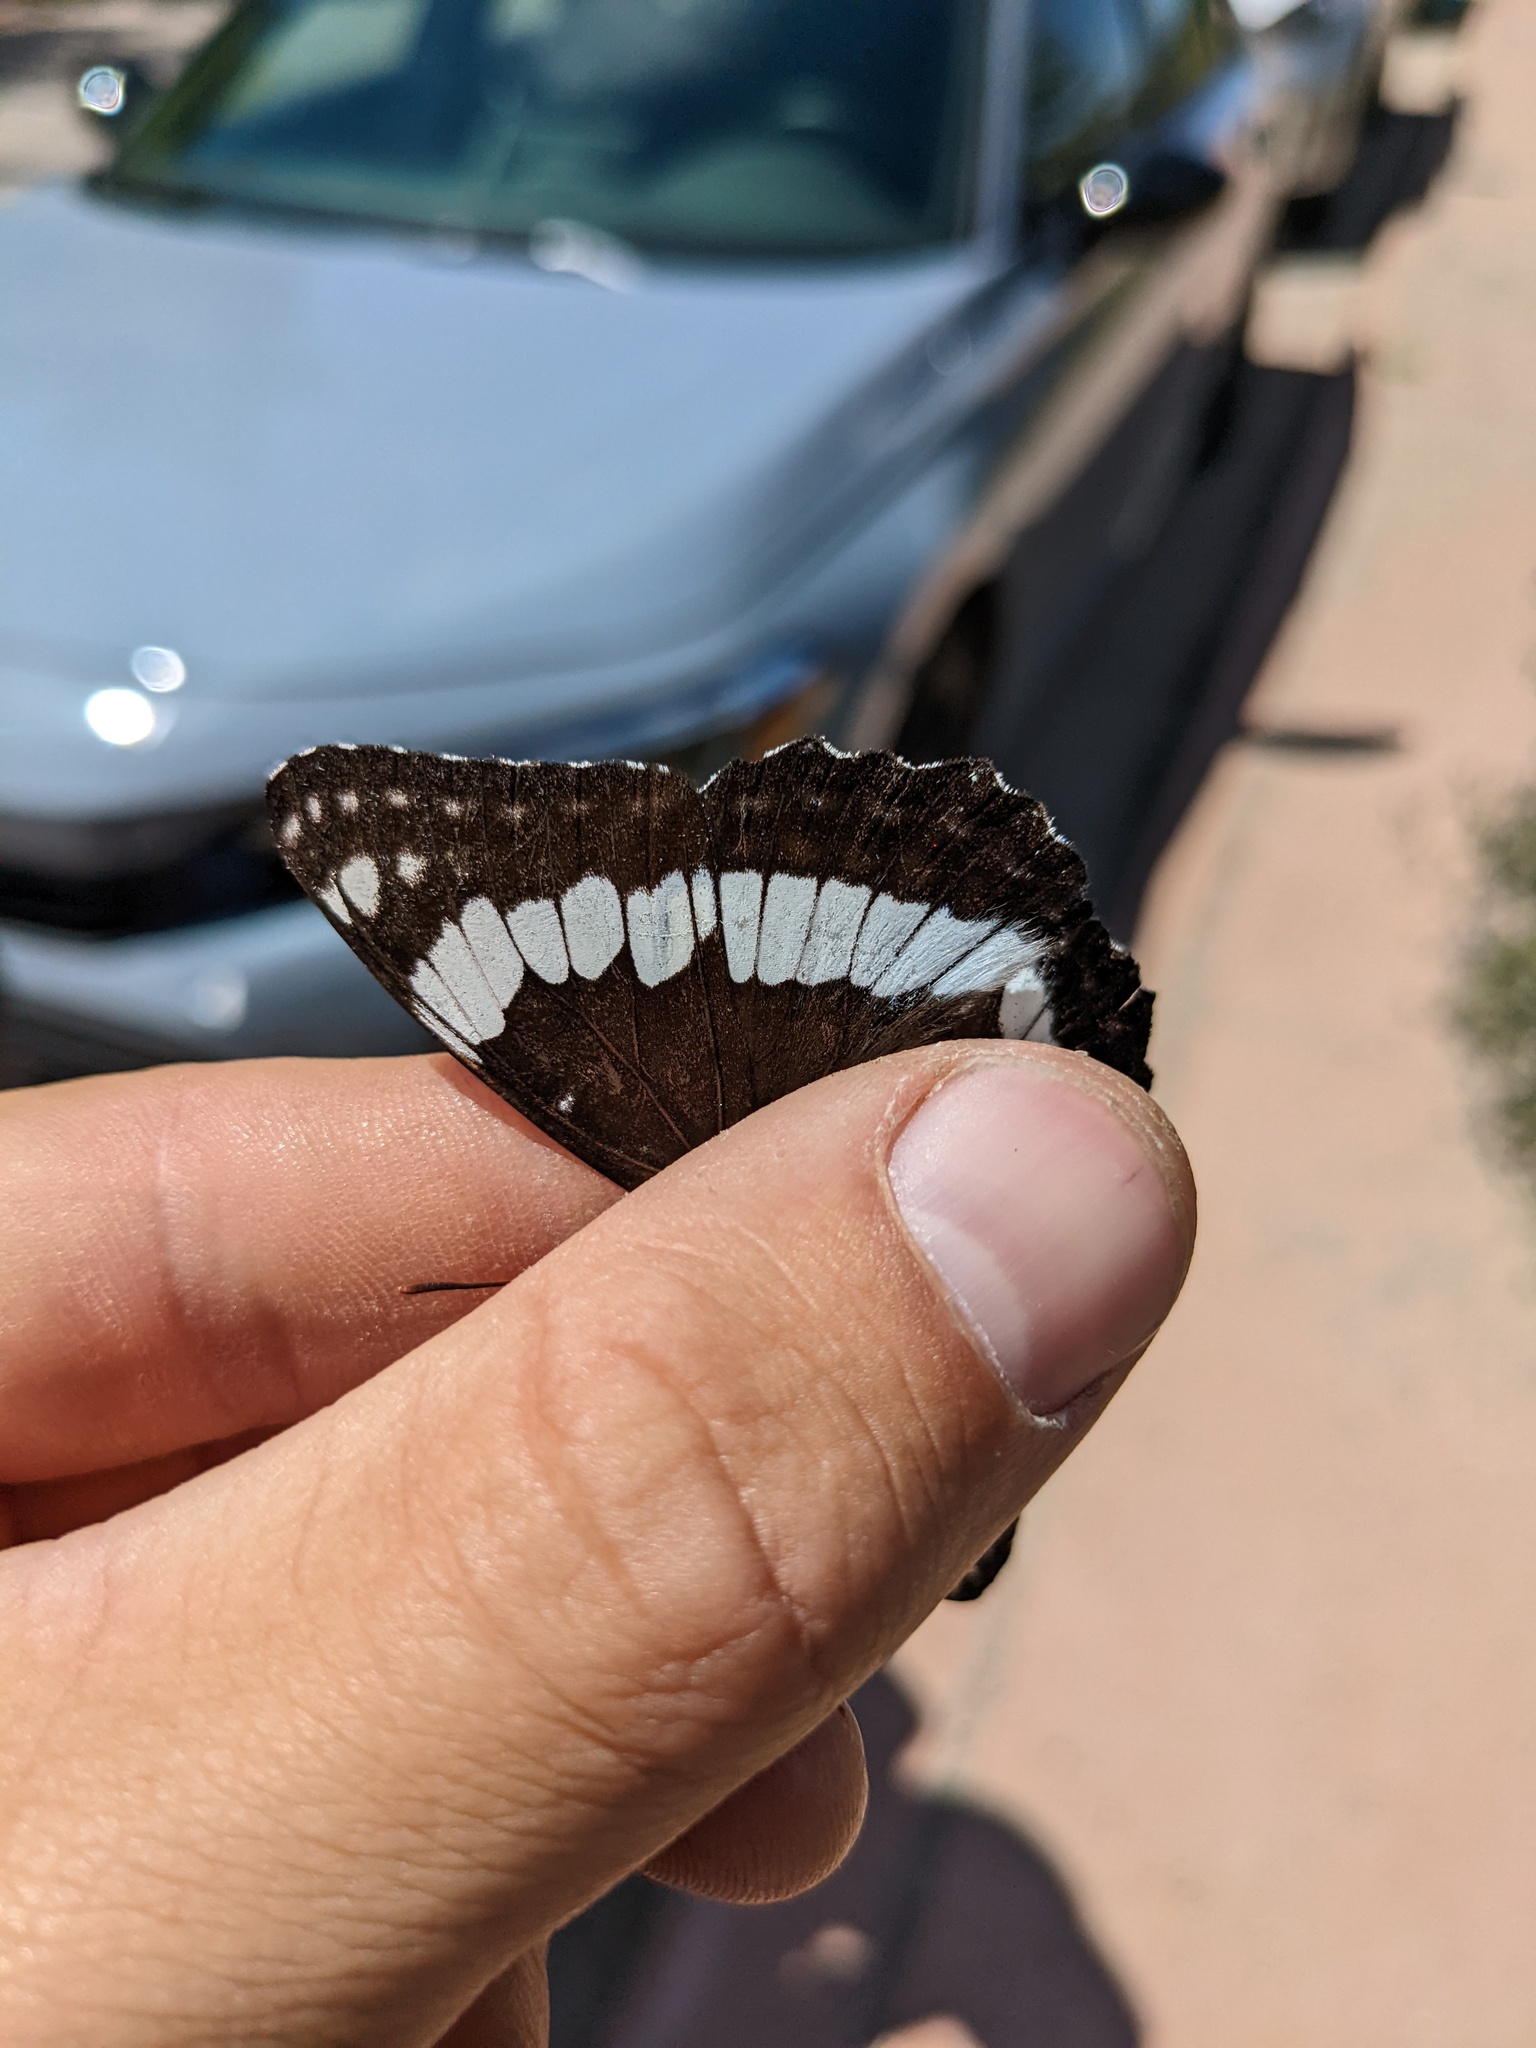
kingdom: Animalia
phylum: Arthropoda
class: Insecta
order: Lepidoptera
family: Nymphalidae
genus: Limenitis
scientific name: Limenitis weidemeyerii
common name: Weidemeyer's admiral
